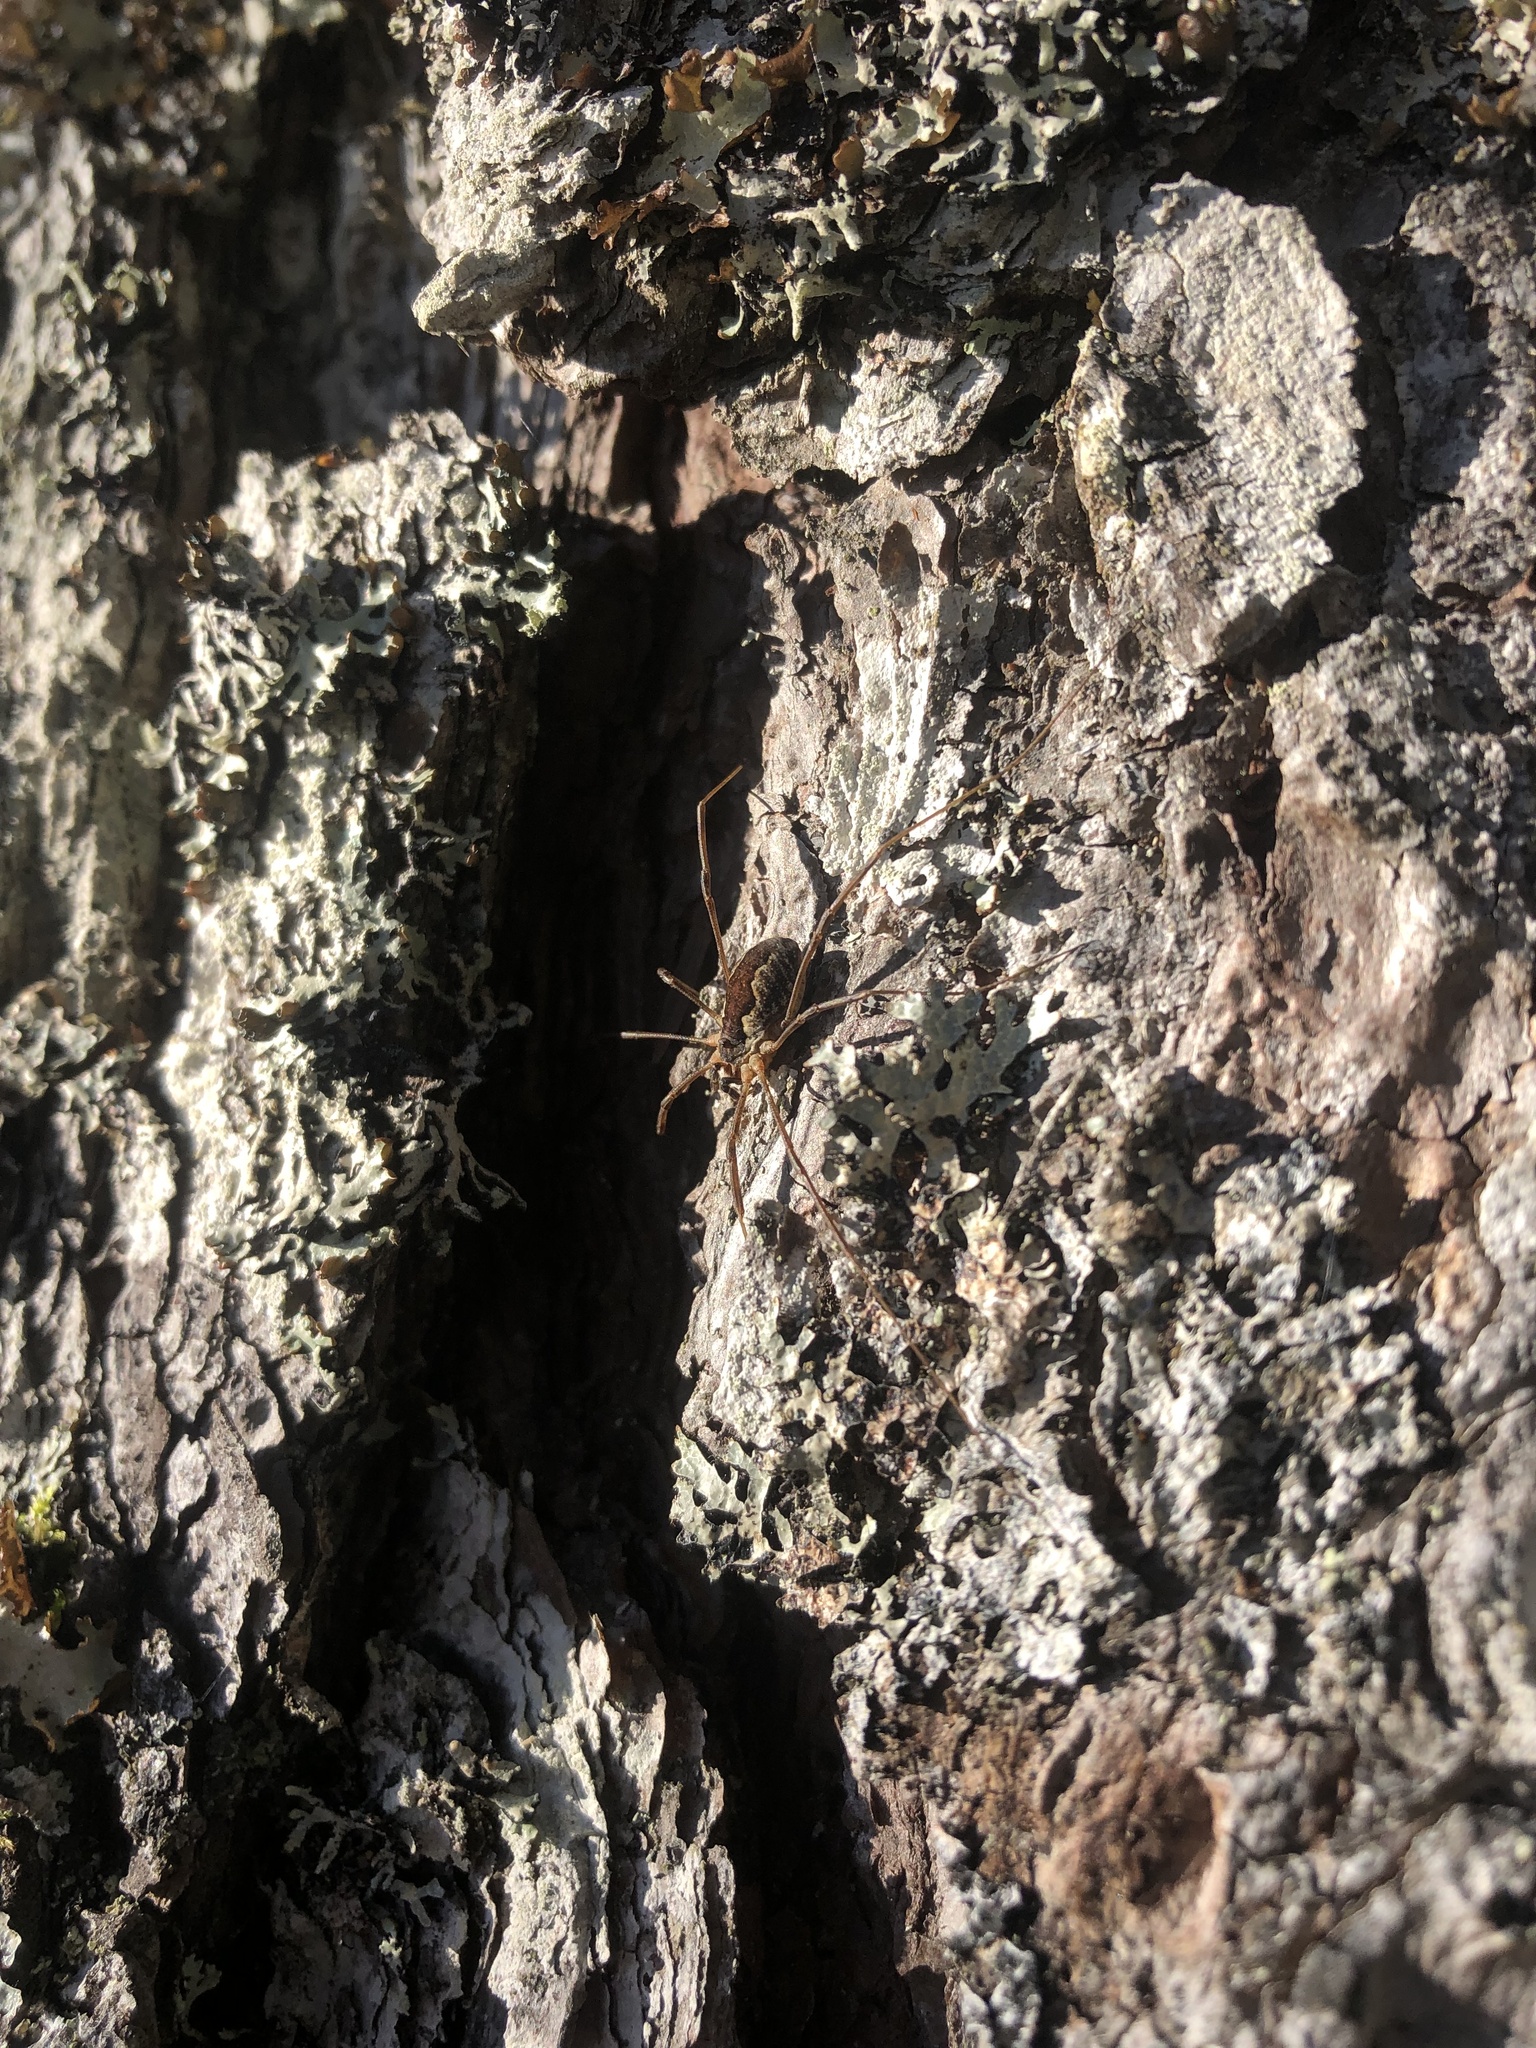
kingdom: Animalia
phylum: Arthropoda
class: Arachnida
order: Opiliones
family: Phalangiidae
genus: Mitopus
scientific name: Mitopus morio
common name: Saddleback harvestman
